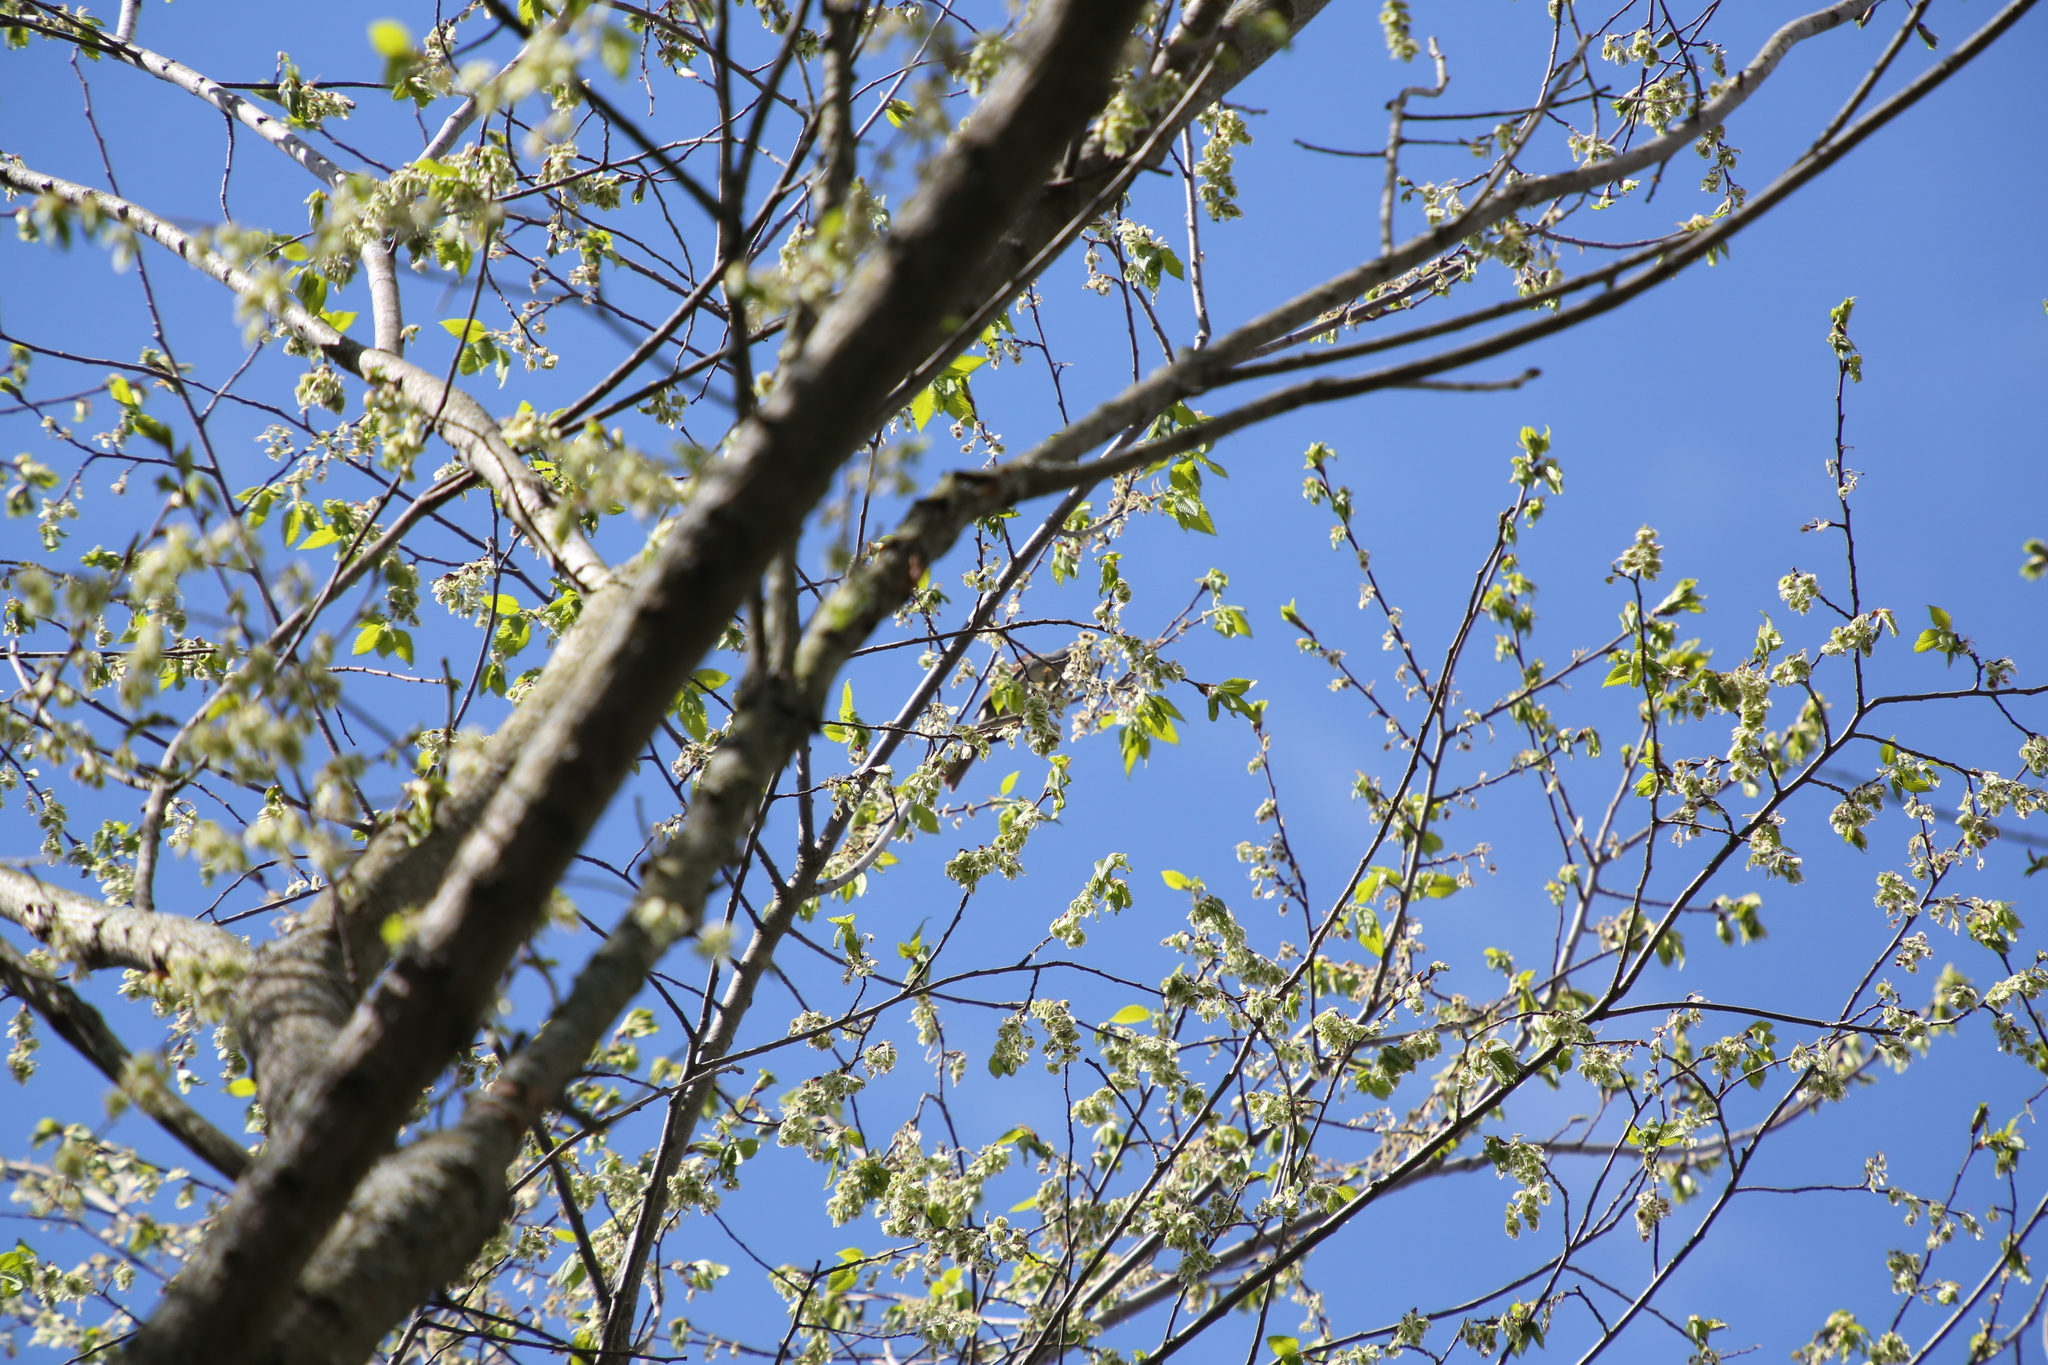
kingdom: Animalia
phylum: Chordata
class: Aves
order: Passeriformes
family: Passerellidae
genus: Zonotrichia
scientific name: Zonotrichia albicollis
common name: White-throated sparrow
